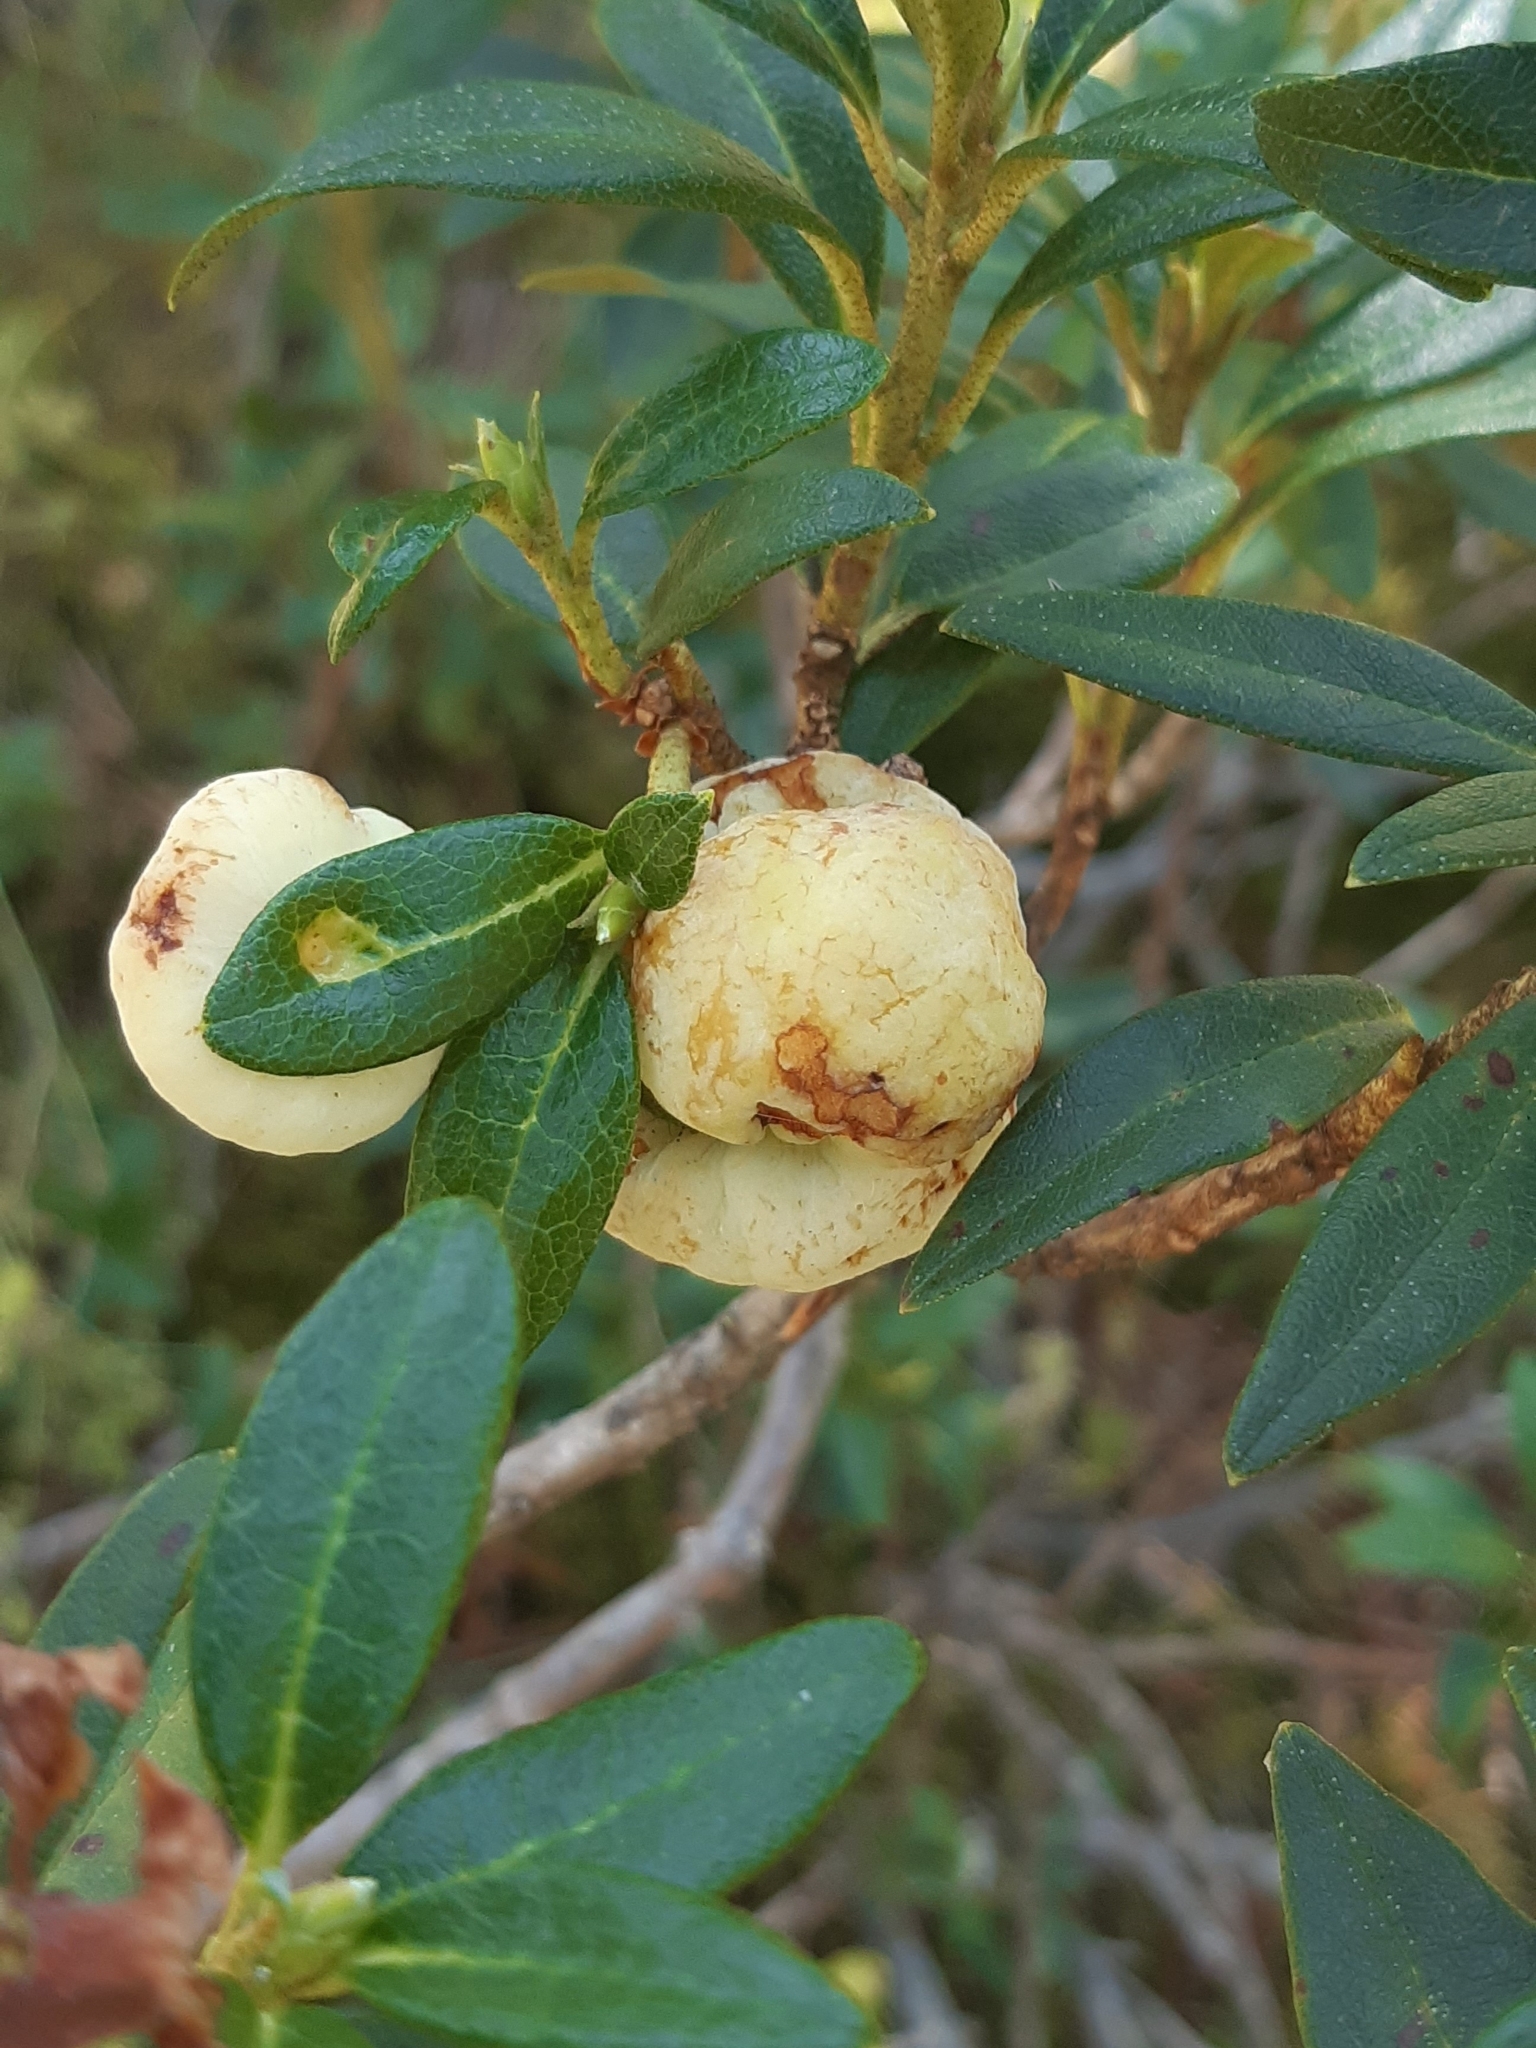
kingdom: Fungi
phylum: Basidiomycota
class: Exobasidiomycetes
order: Exobasidiales
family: Exobasidiaceae
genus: Exobasidium
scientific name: Exobasidium rhododendri
